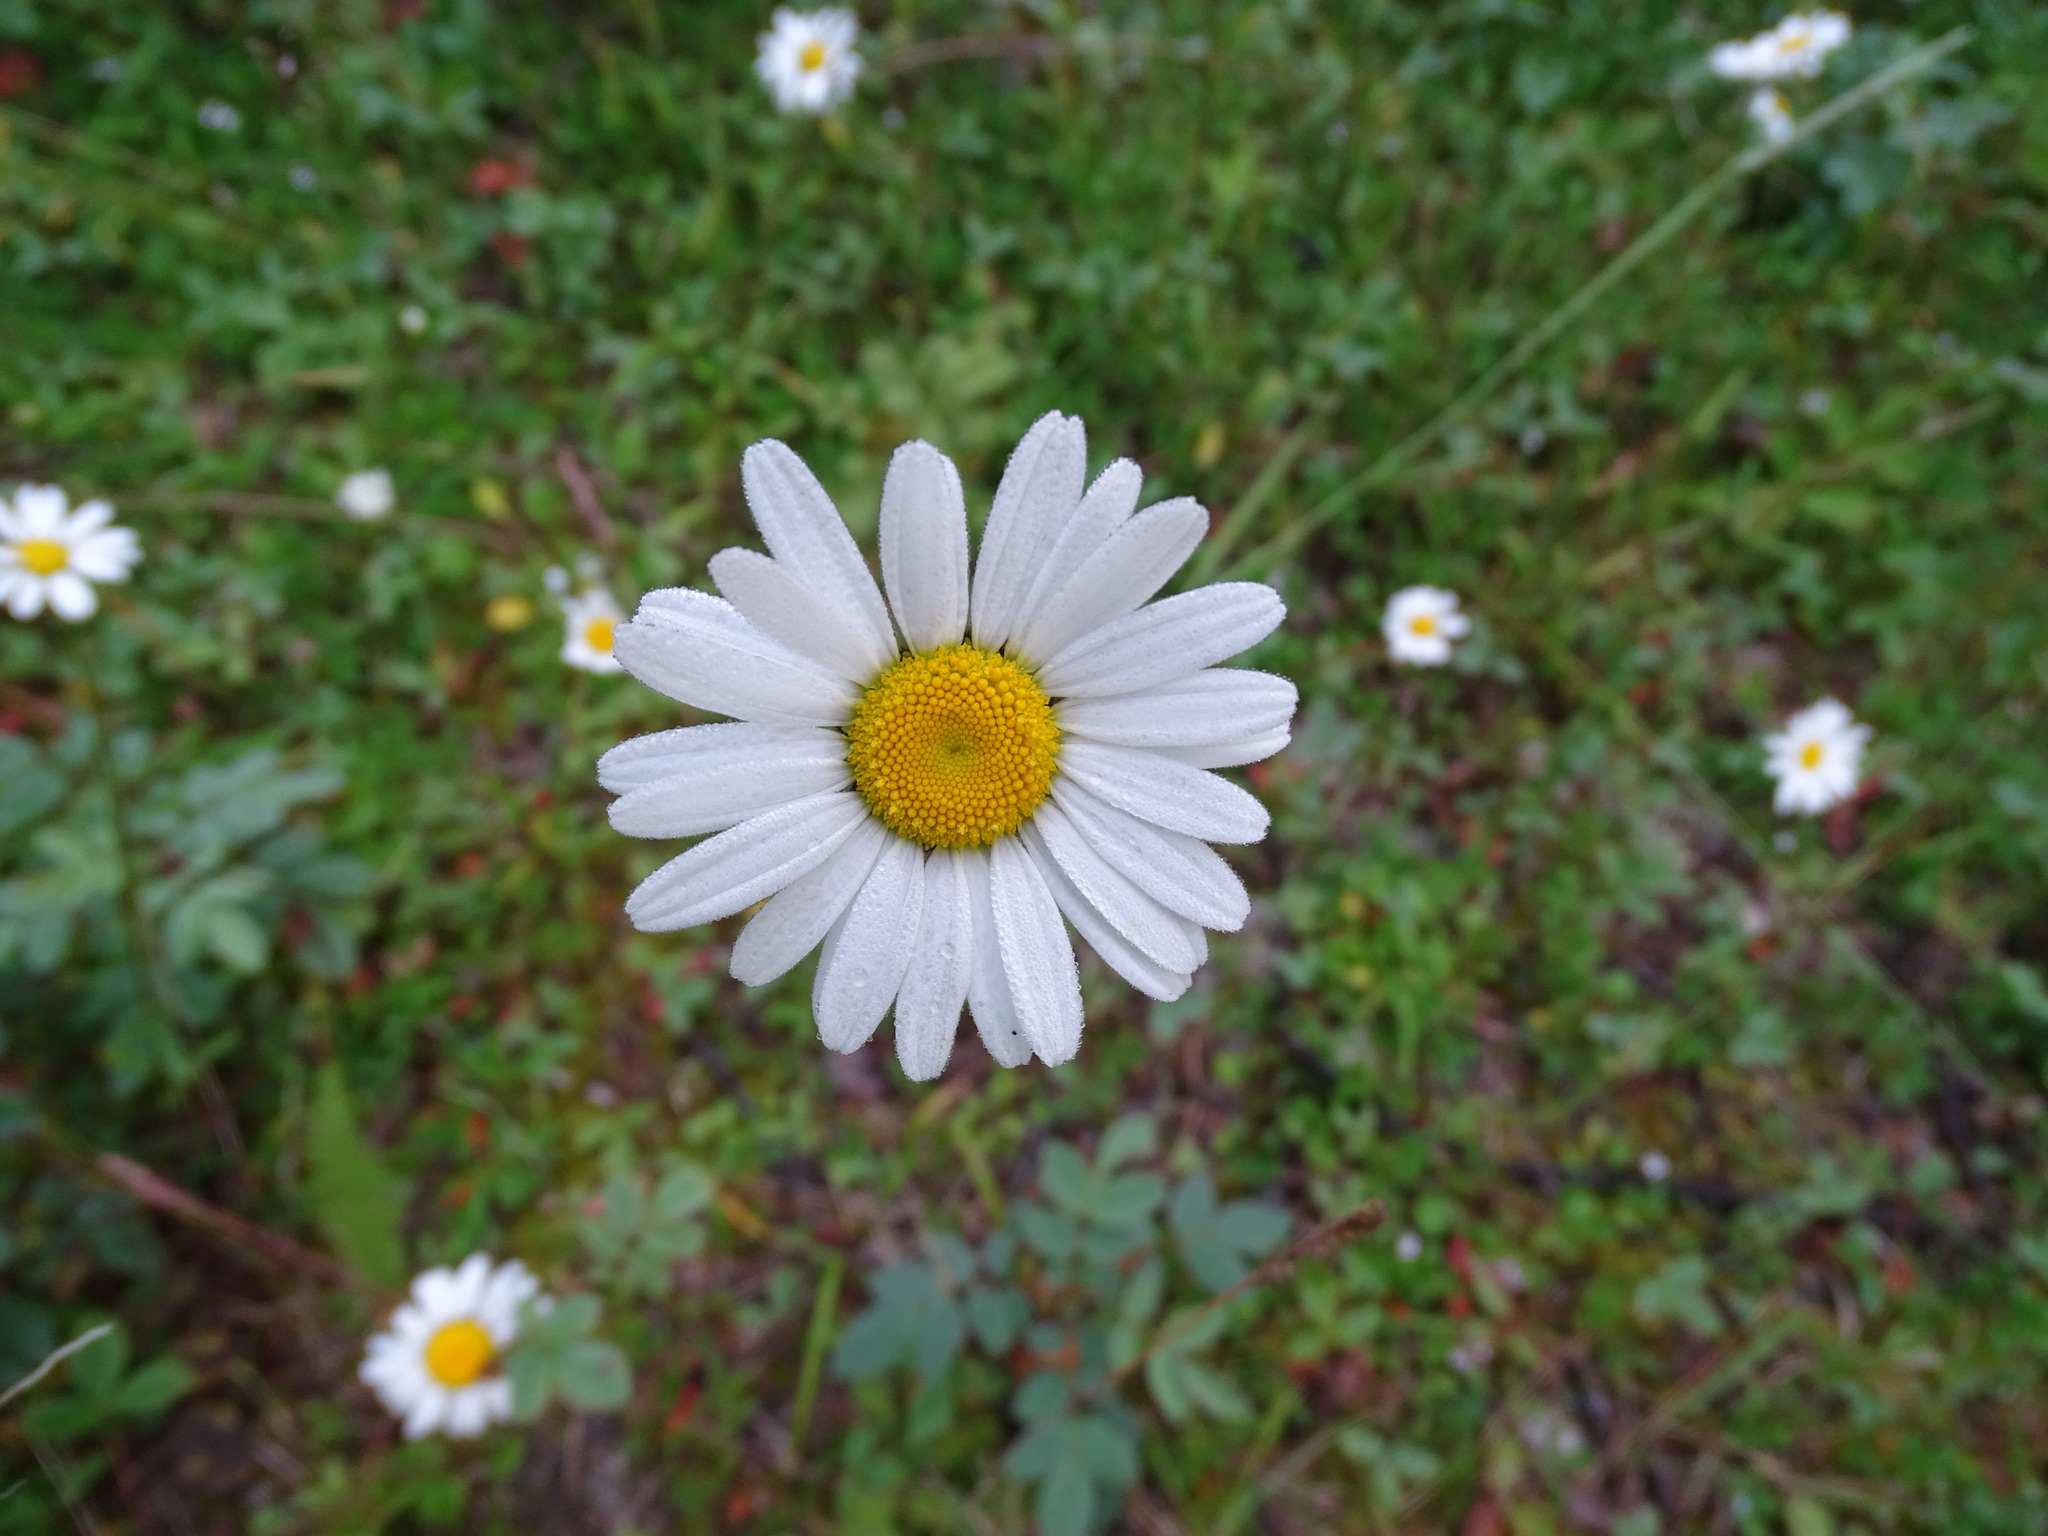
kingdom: Plantae
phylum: Tracheophyta
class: Magnoliopsida
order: Asterales
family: Asteraceae
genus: Leucanthemum
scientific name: Leucanthemum vulgare
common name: Oxeye daisy
